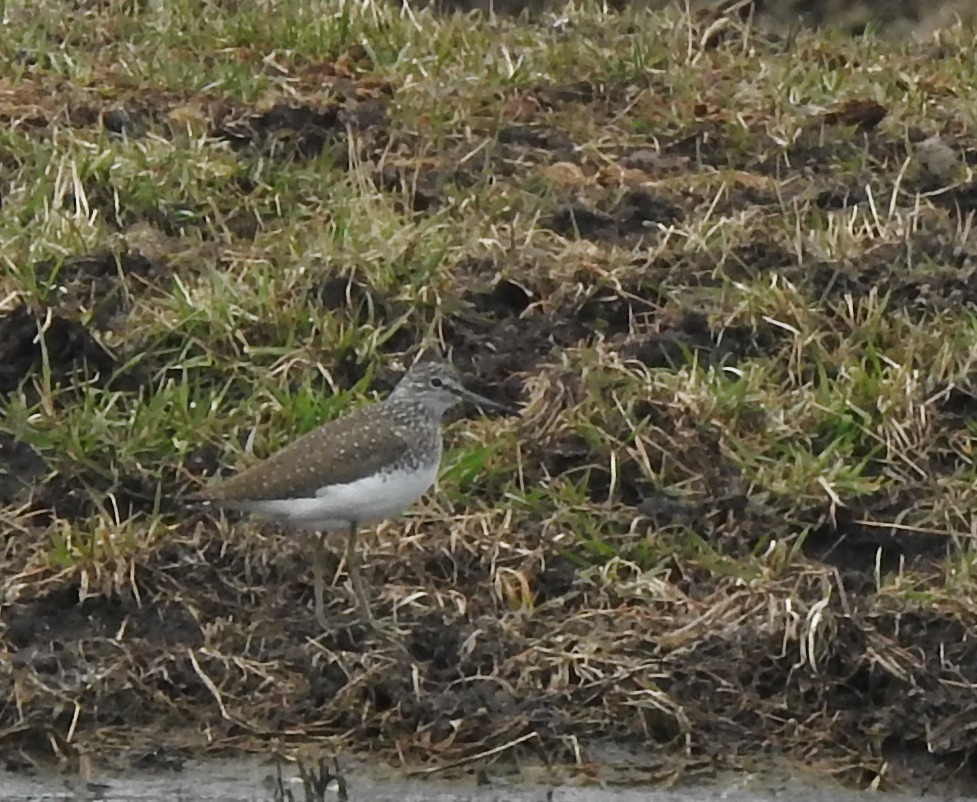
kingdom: Animalia
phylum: Chordata
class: Aves
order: Charadriiformes
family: Scolopacidae
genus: Tringa
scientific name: Tringa ochropus
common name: Green sandpiper
